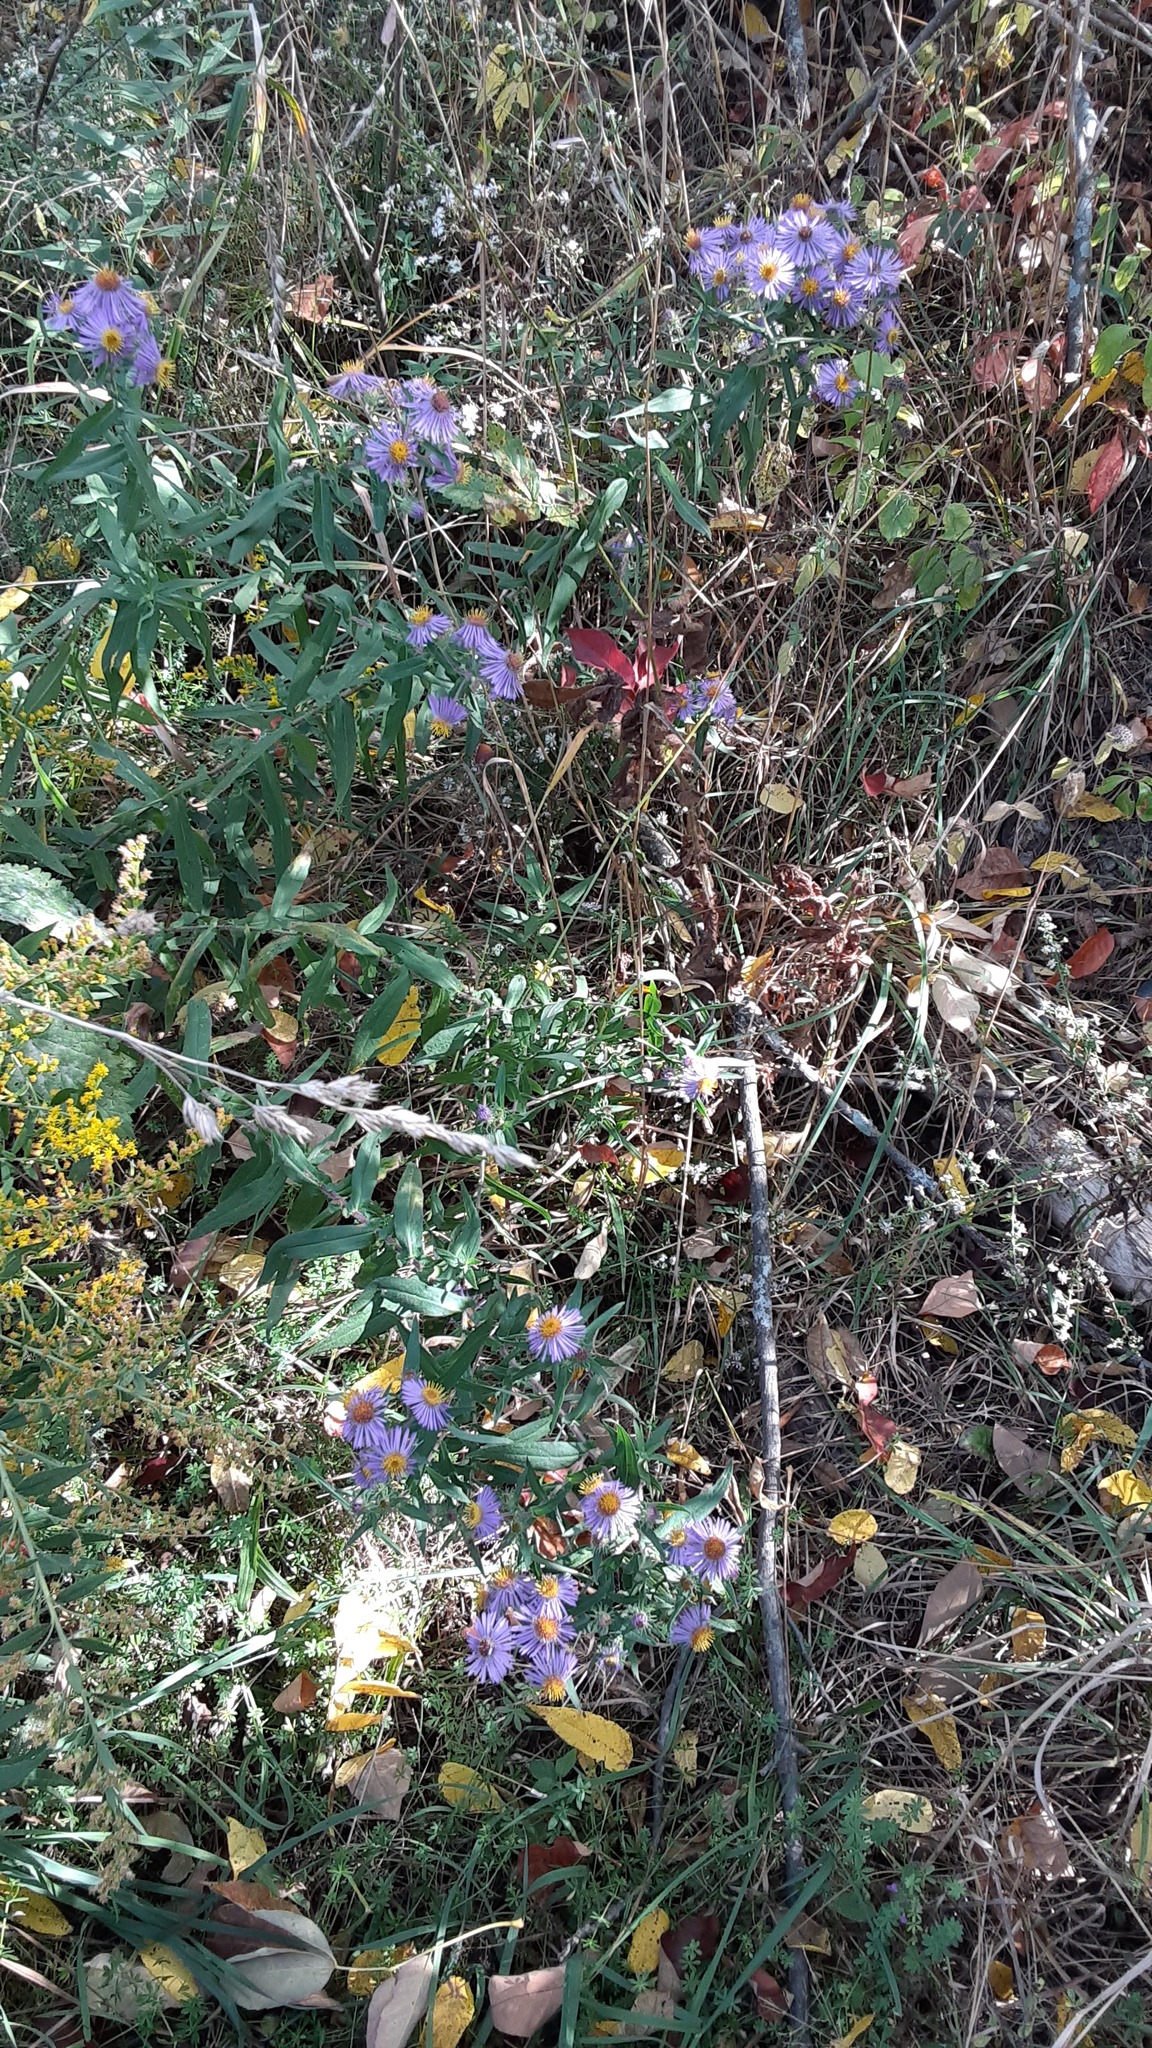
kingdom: Plantae
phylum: Tracheophyta
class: Magnoliopsida
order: Asterales
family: Asteraceae
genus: Symphyotrichum
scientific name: Symphyotrichum novae-angliae
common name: Michaelmas daisy
